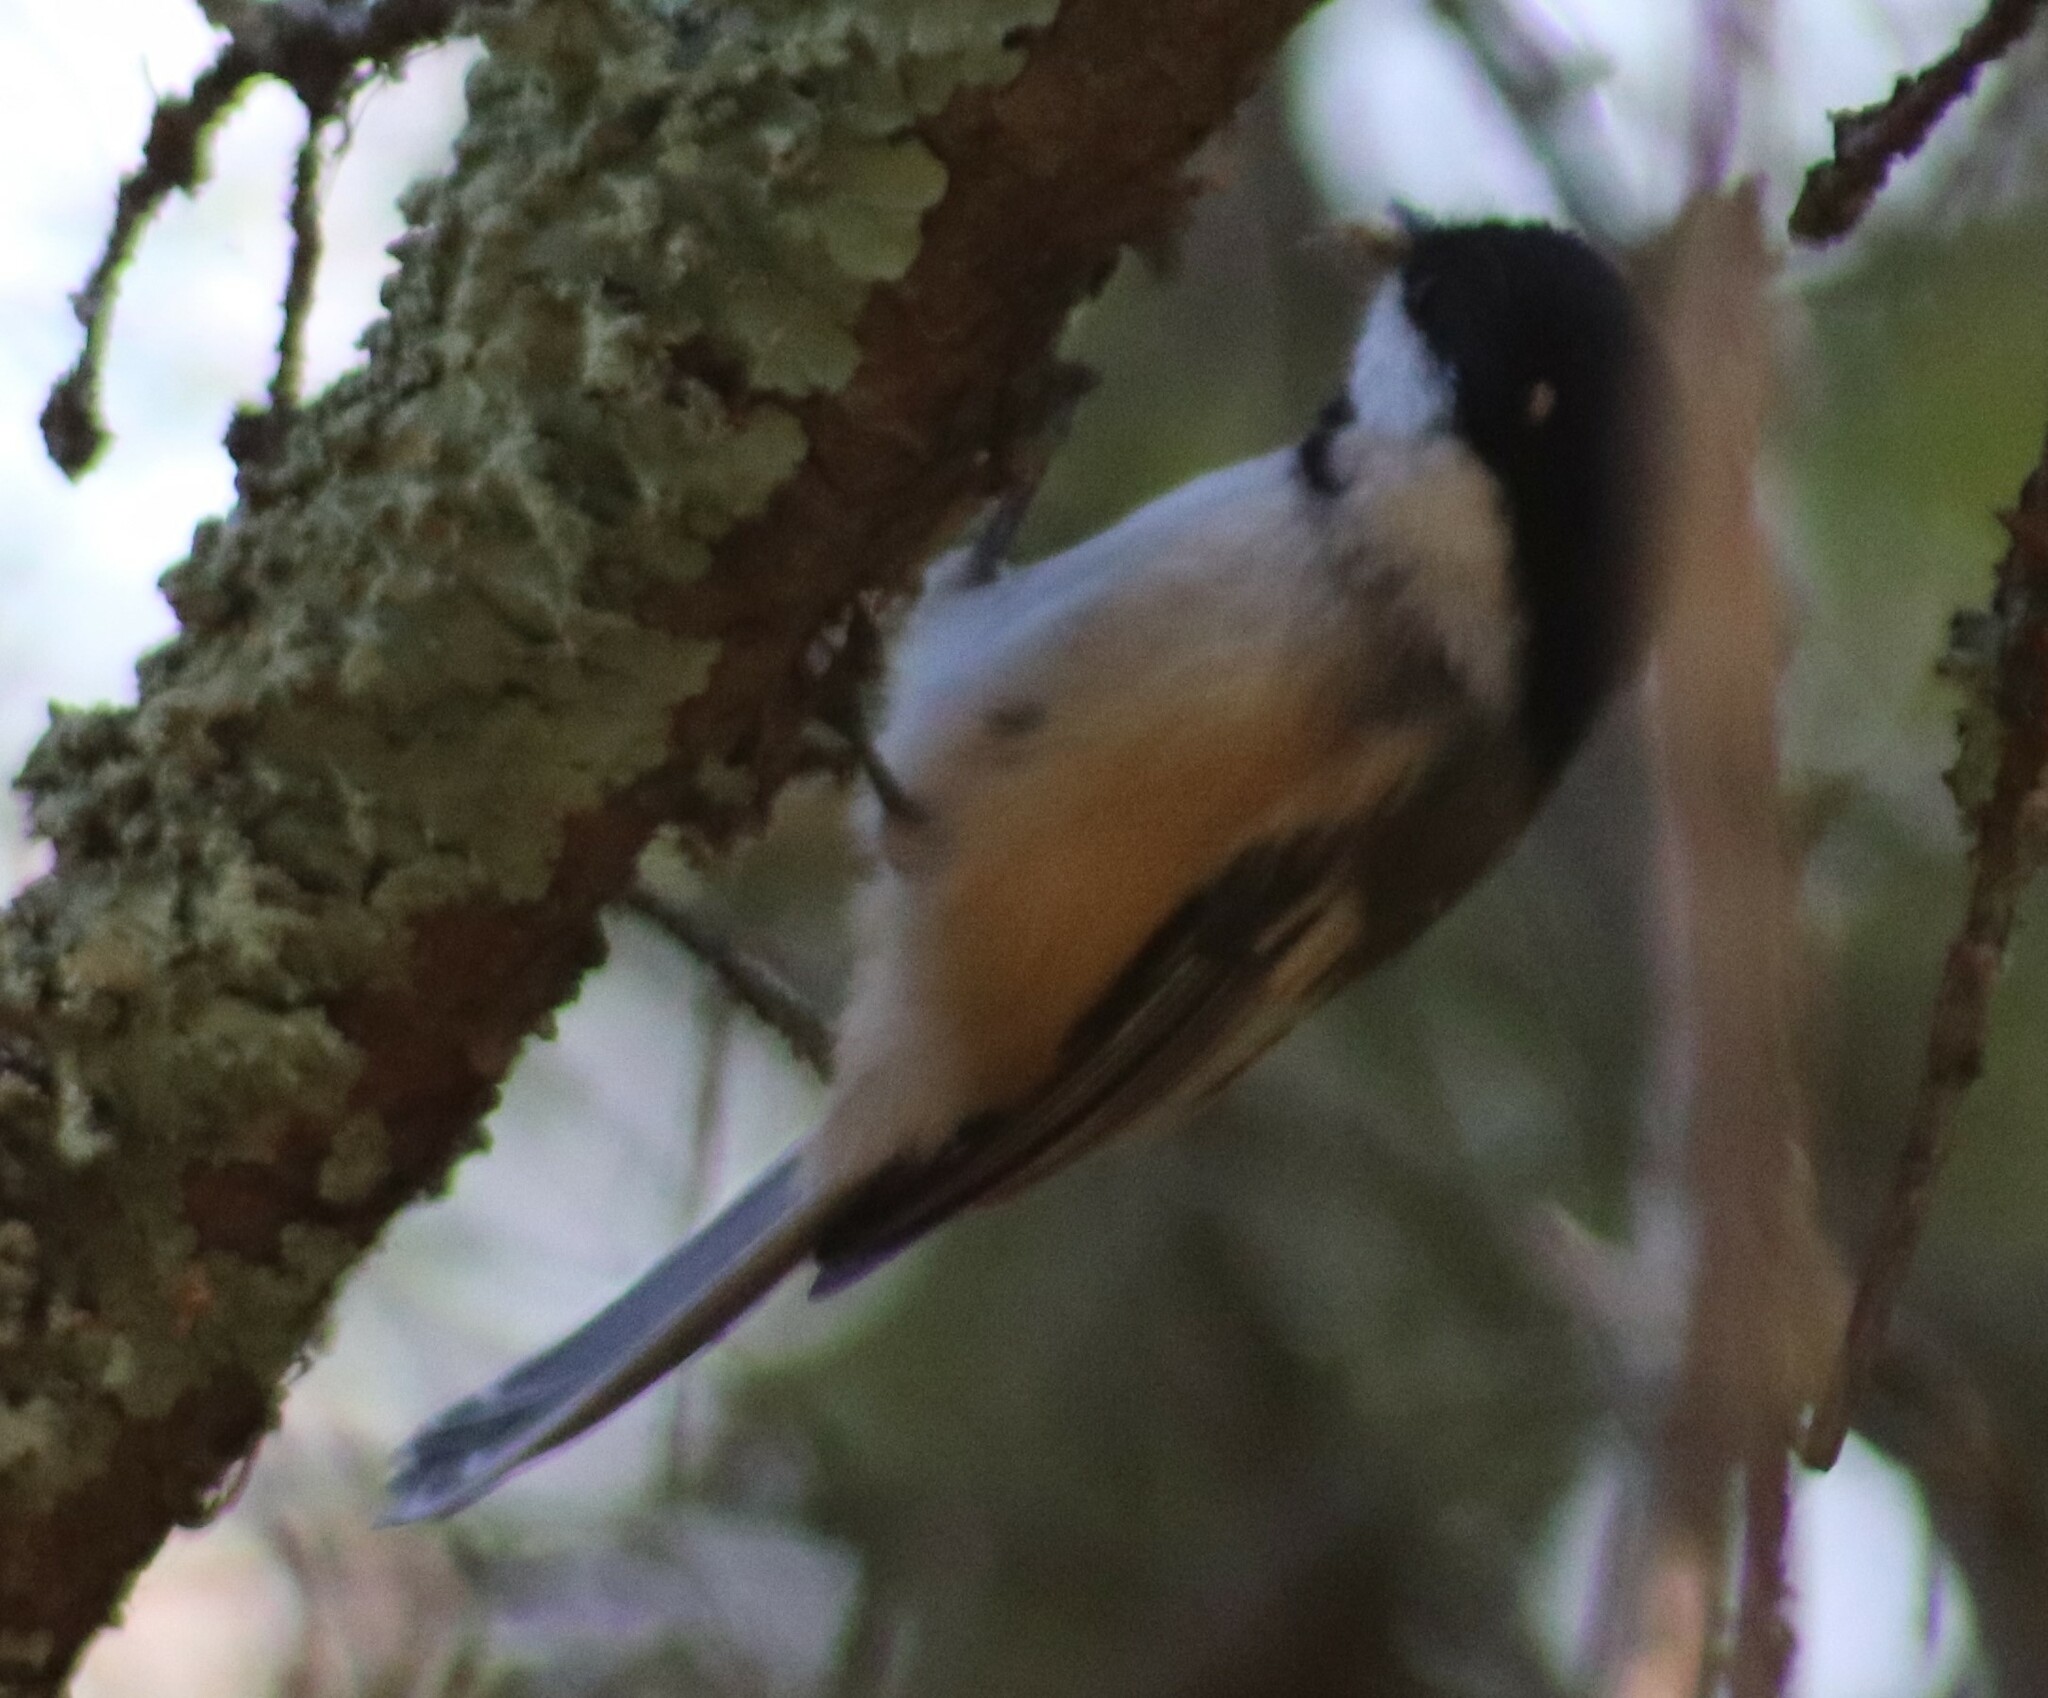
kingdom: Animalia
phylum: Chordata
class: Aves
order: Passeriformes
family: Paridae
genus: Poecile
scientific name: Poecile atricapillus
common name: Black-capped chickadee
